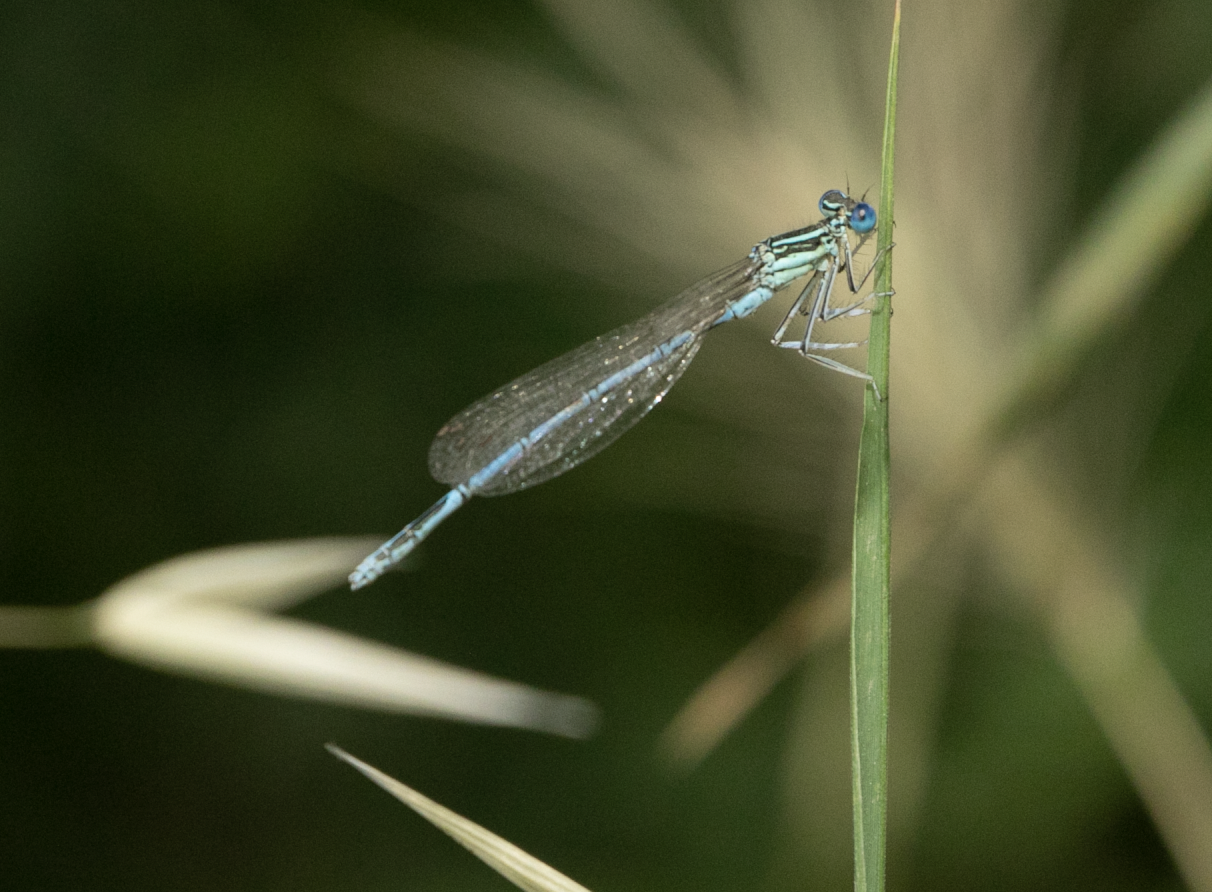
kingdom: Animalia
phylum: Arthropoda
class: Insecta
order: Odonata
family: Platycnemididae
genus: Platycnemis
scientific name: Platycnemis pennipes
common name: White-legged damselfly
